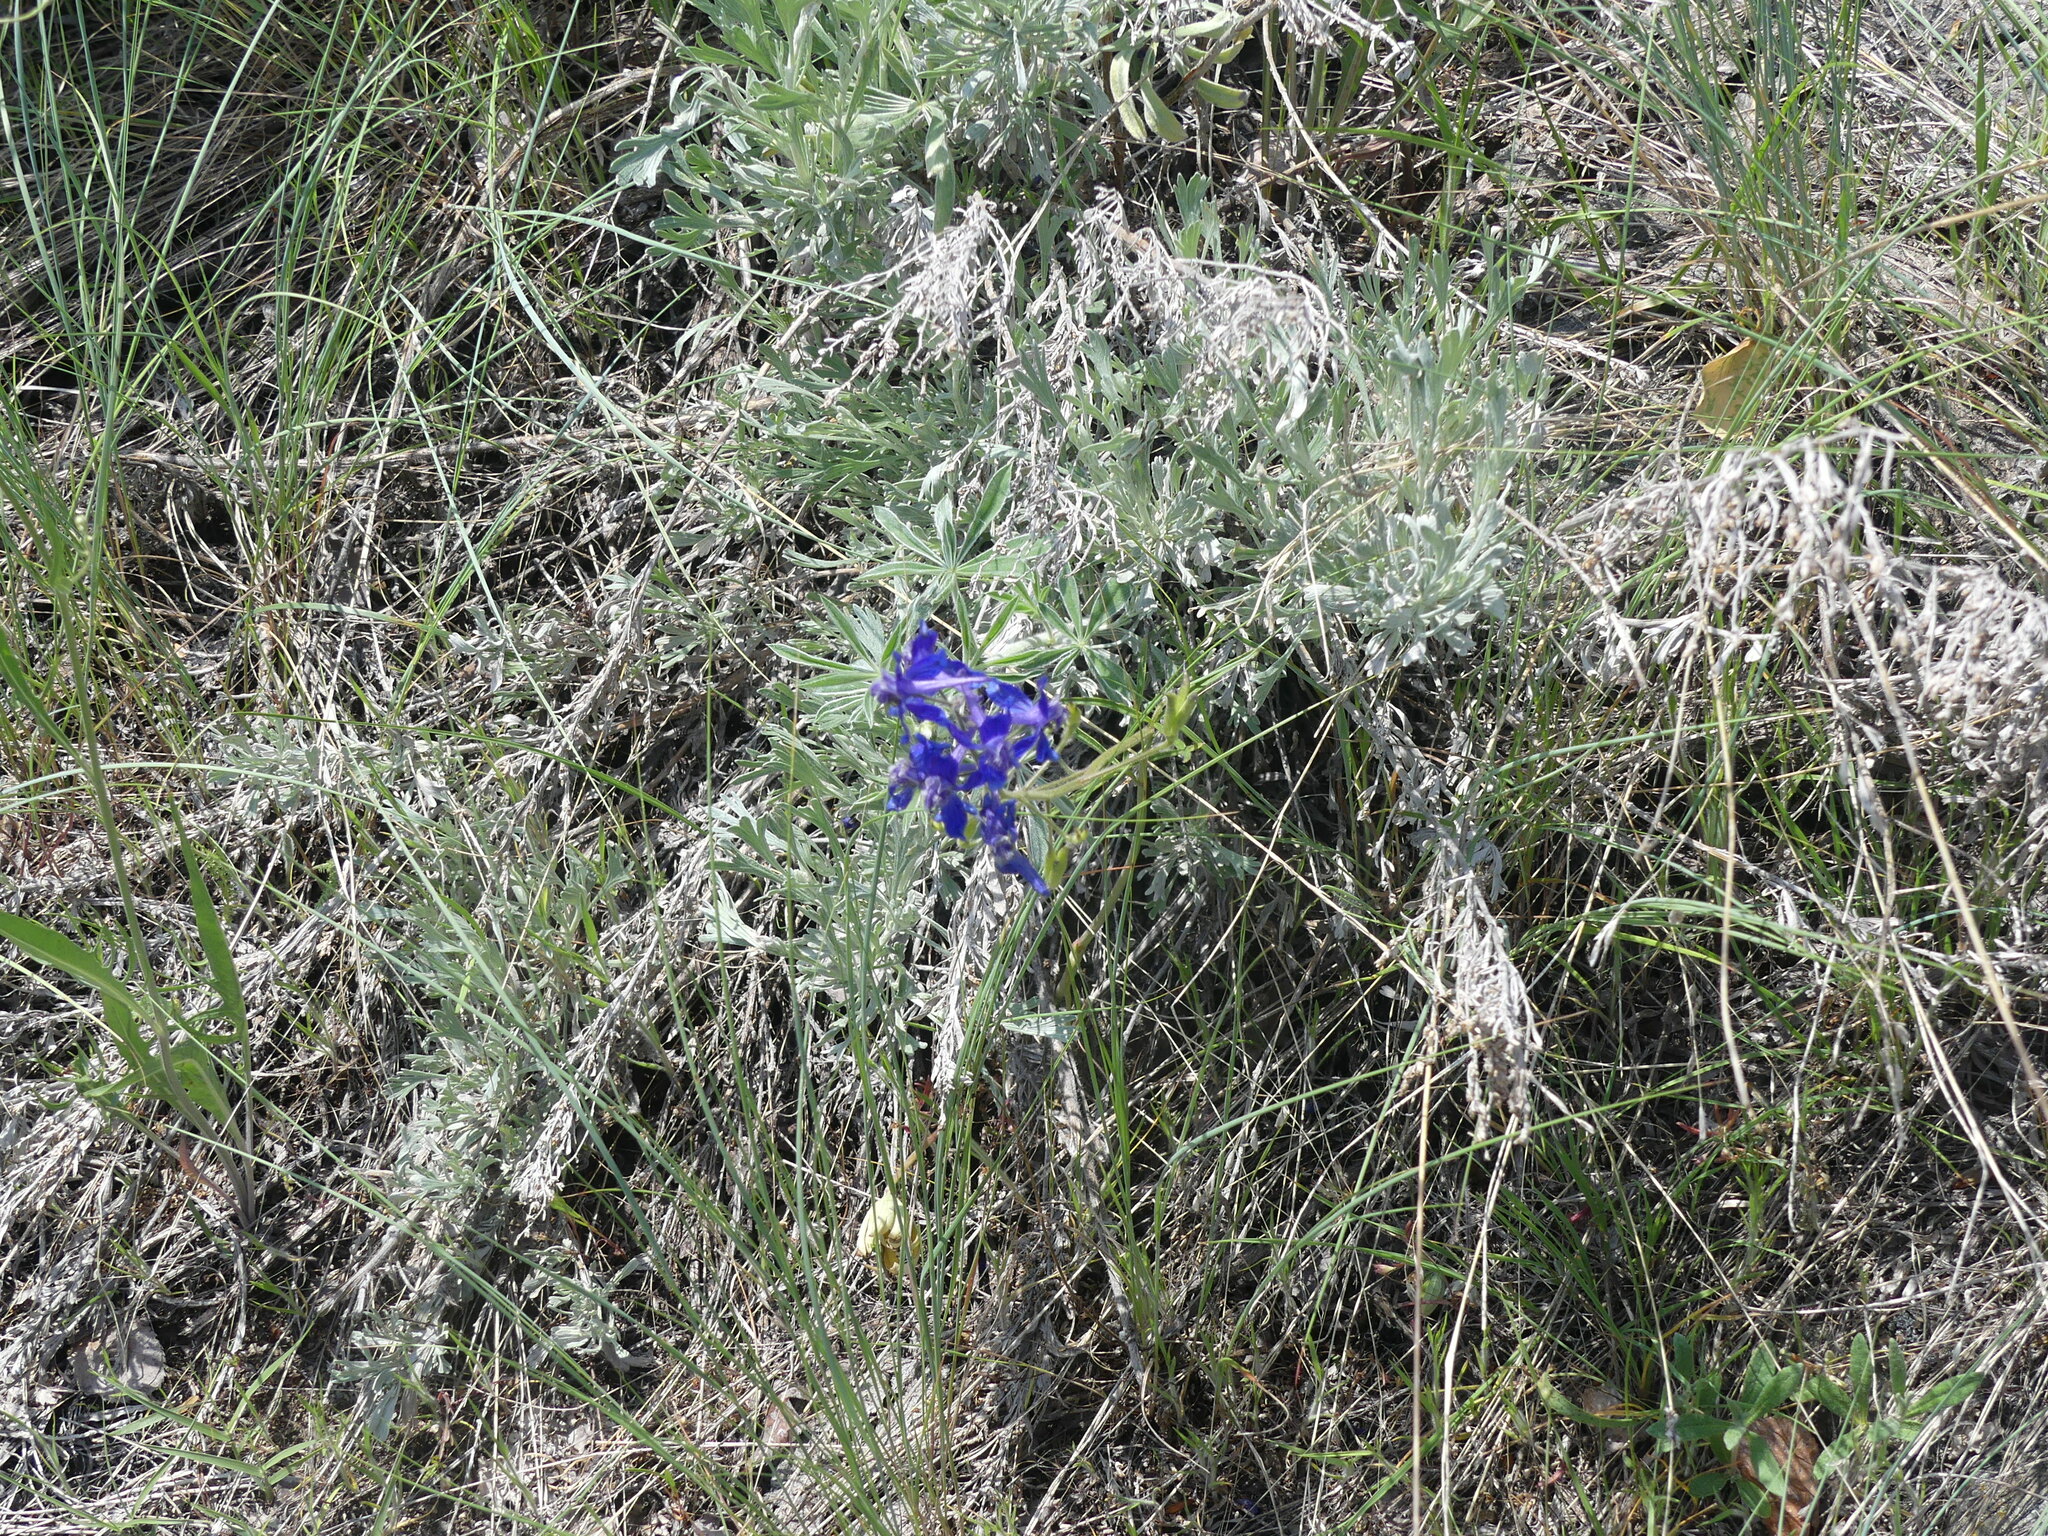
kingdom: Plantae
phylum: Tracheophyta
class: Magnoliopsida
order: Ranunculales
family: Ranunculaceae
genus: Delphinium
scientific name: Delphinium nuttallianum
